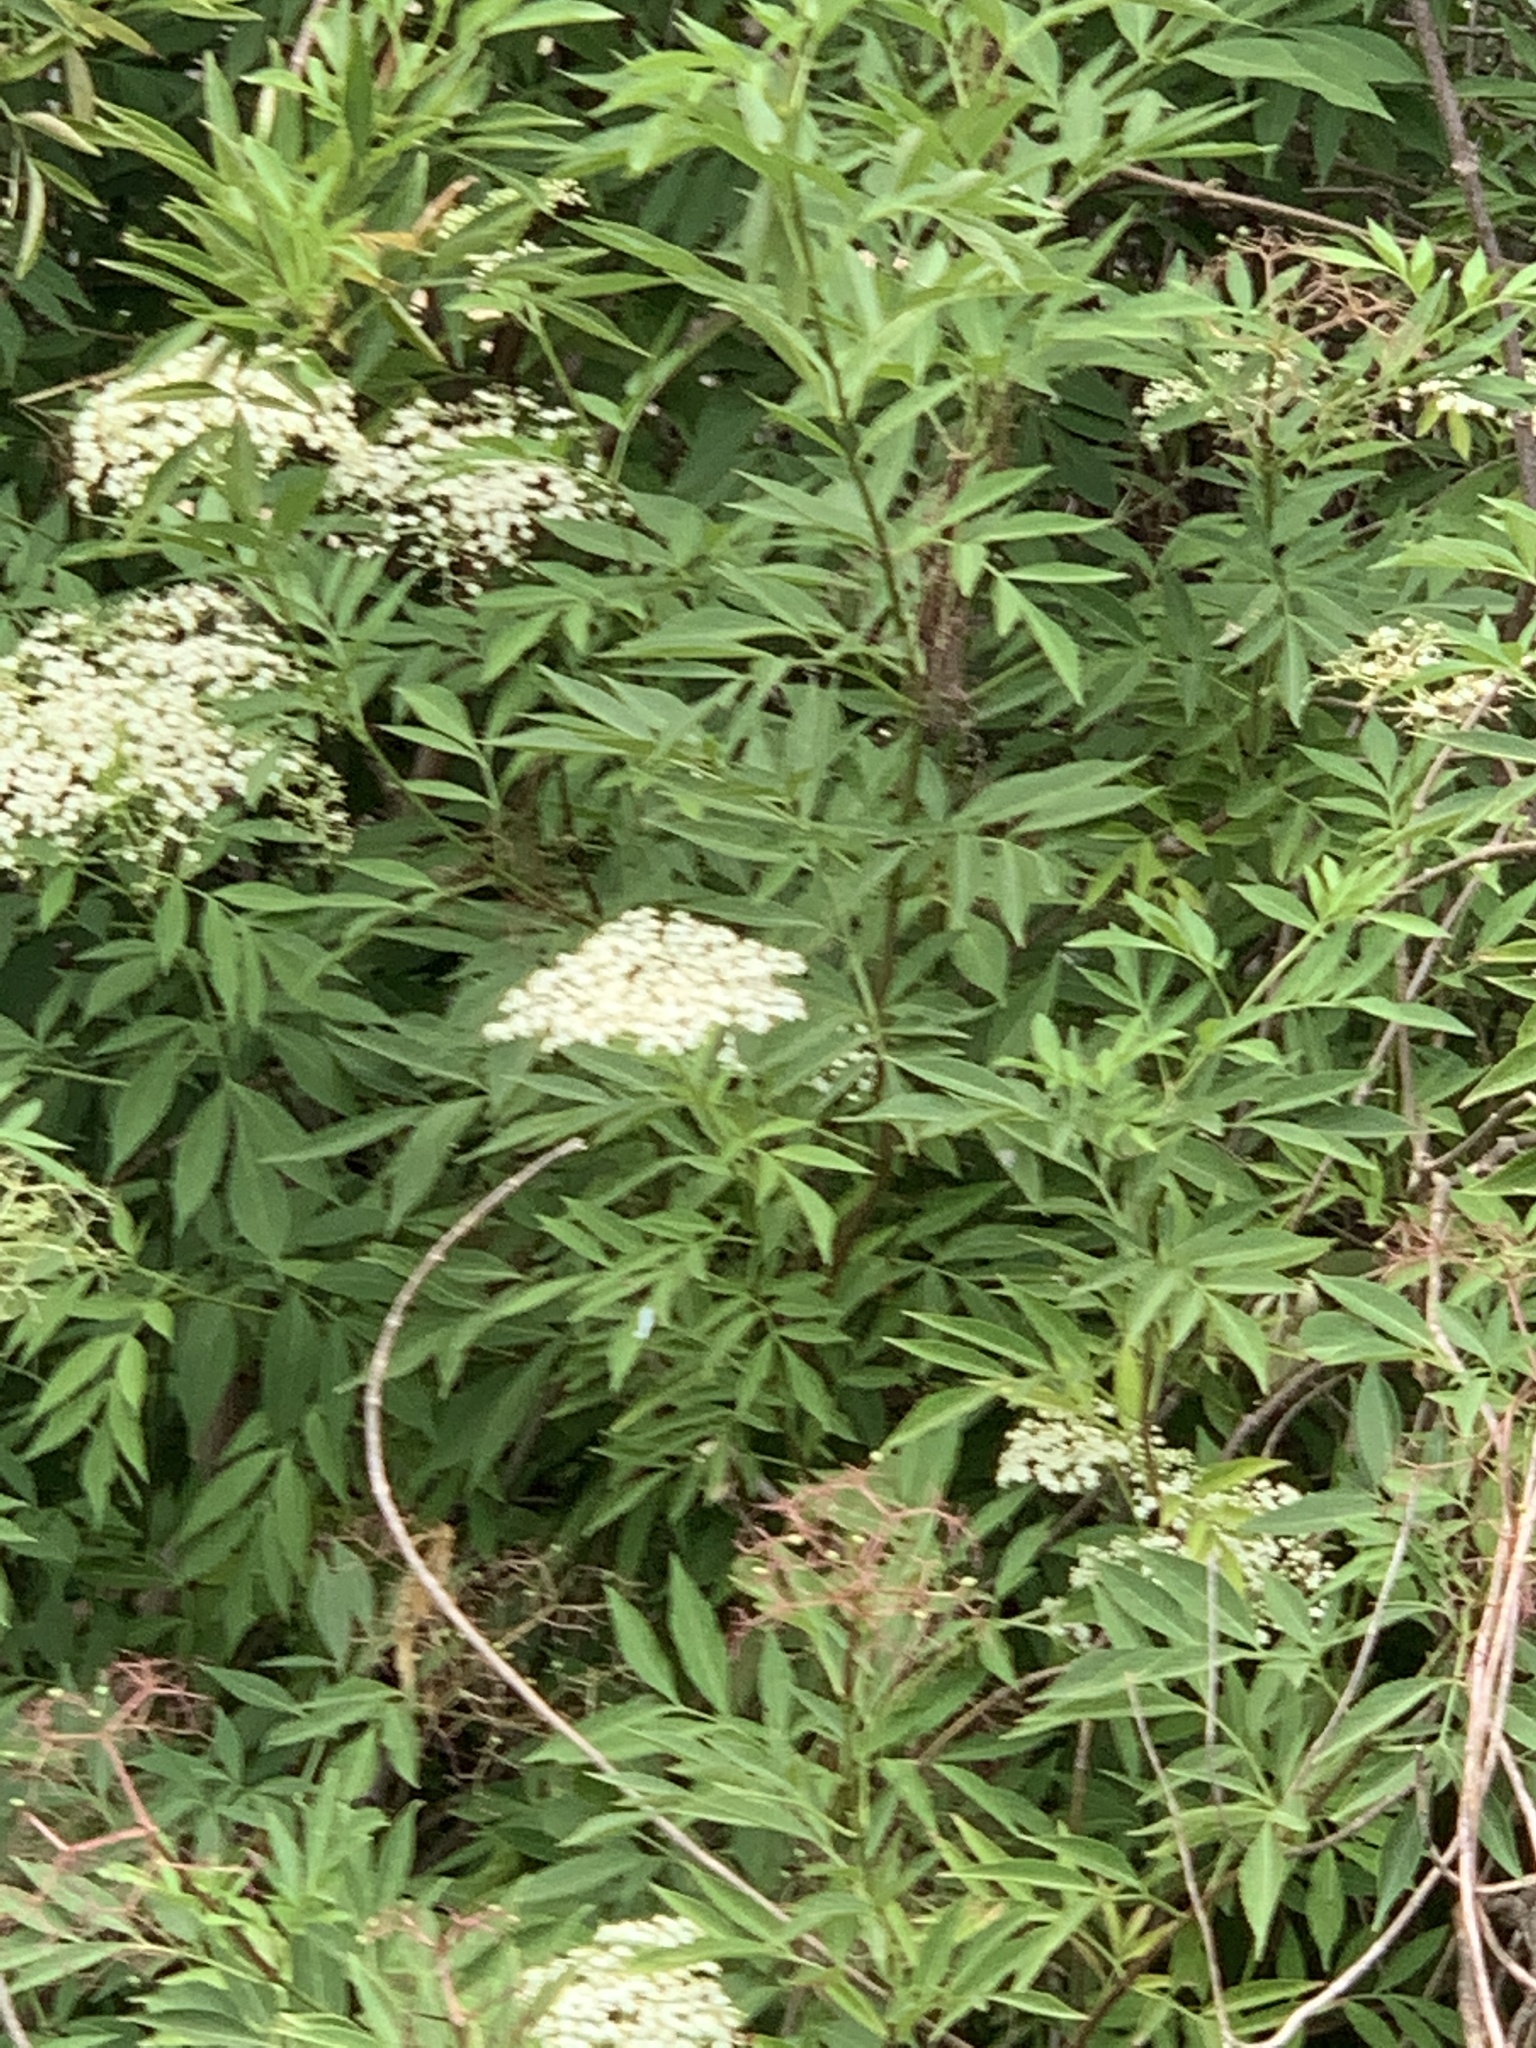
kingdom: Plantae
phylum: Tracheophyta
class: Magnoliopsida
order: Dipsacales
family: Viburnaceae
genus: Sambucus
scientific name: Sambucus nigra
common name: Elder
